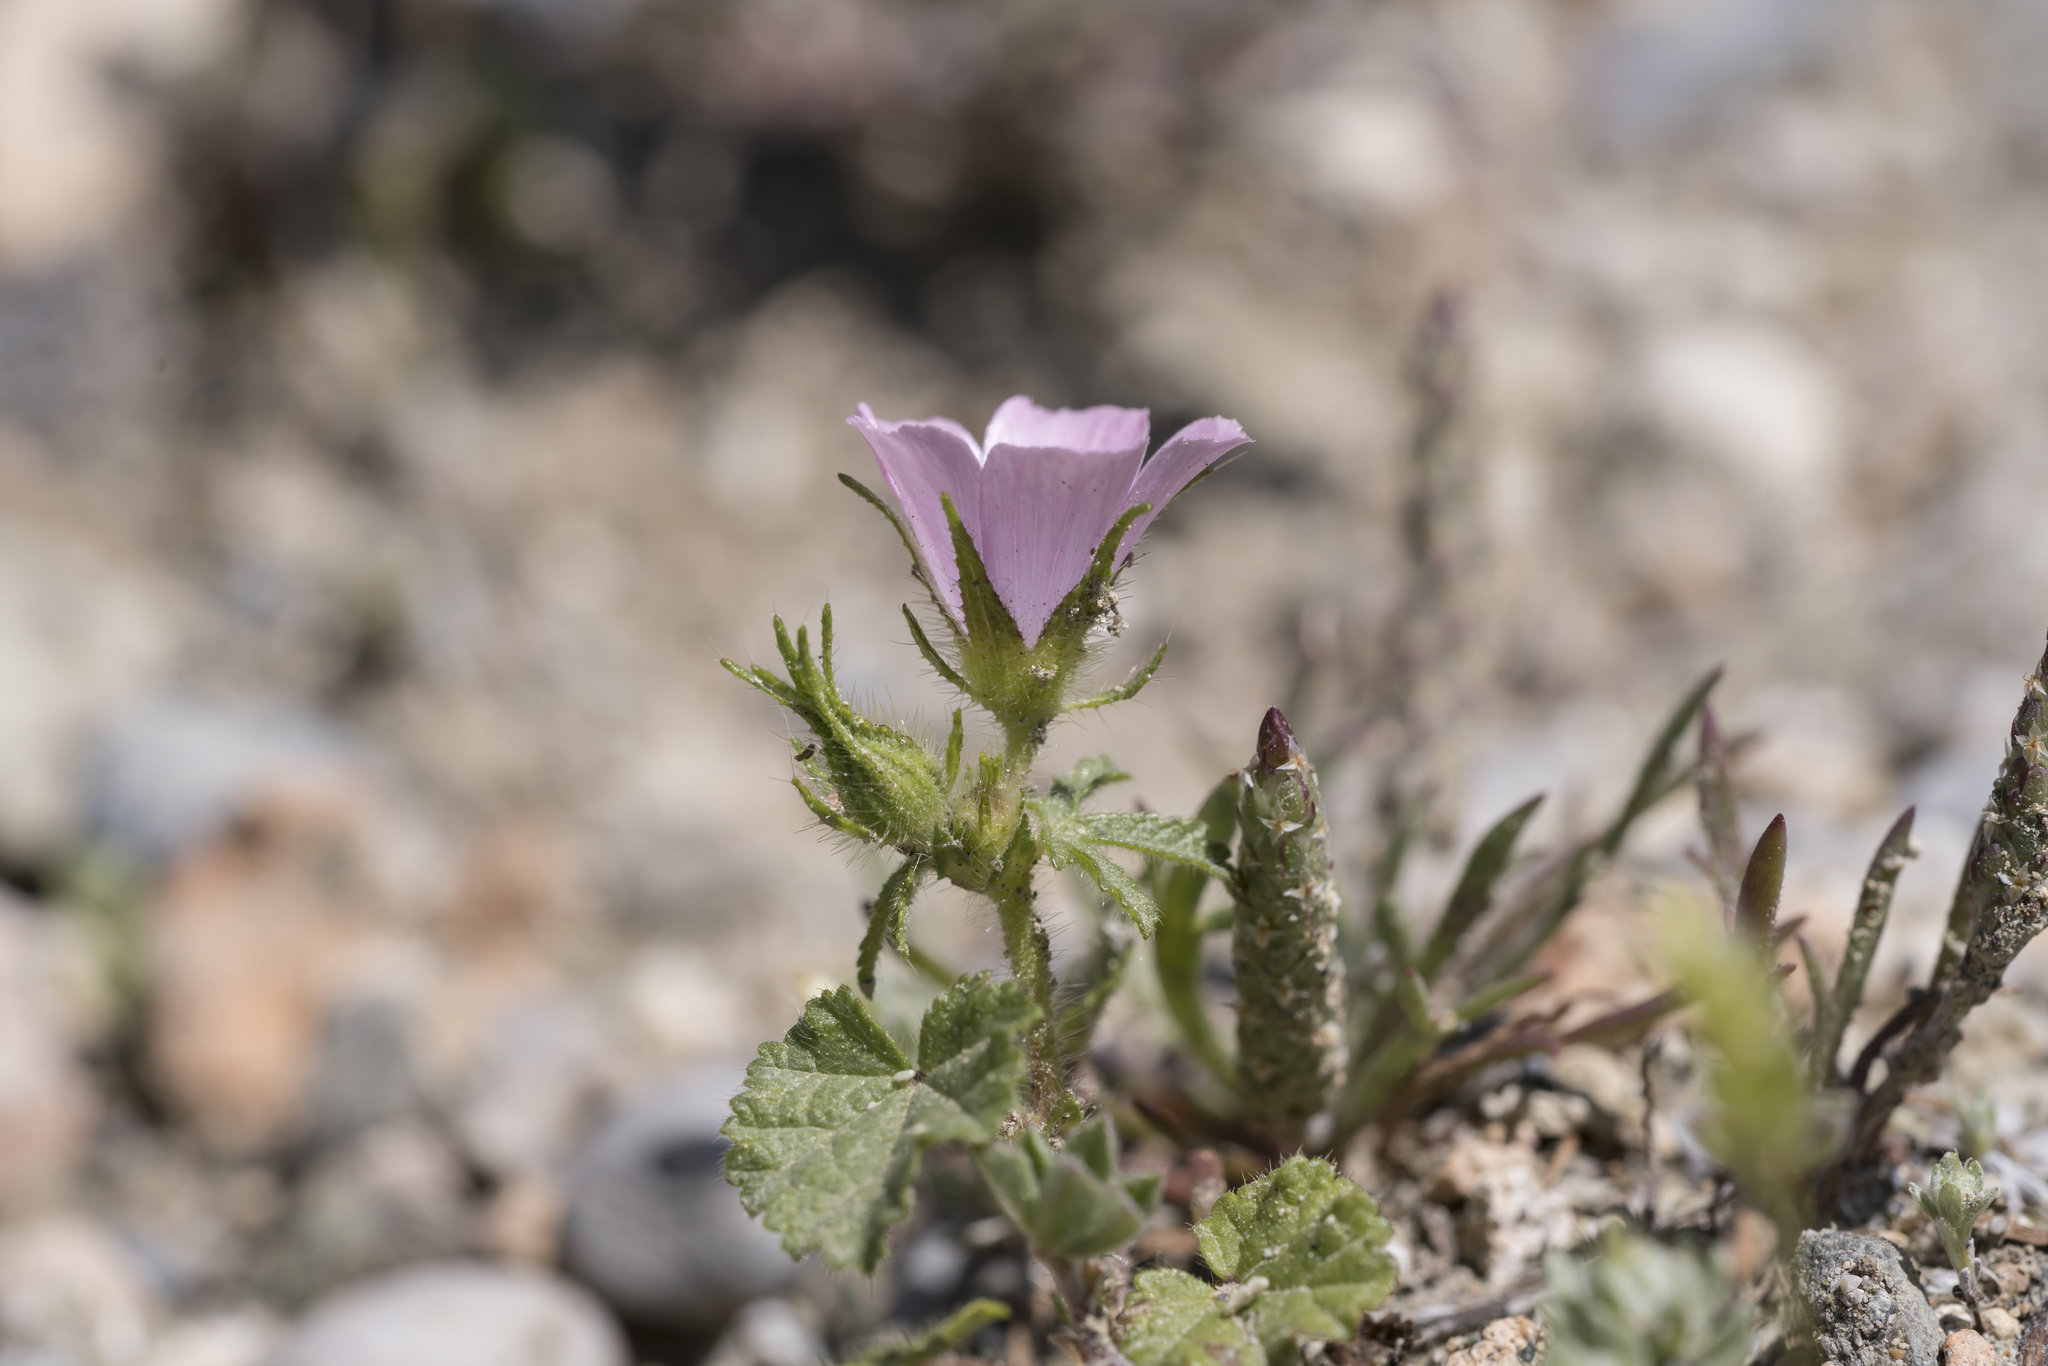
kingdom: Plantae
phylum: Tracheophyta
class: Magnoliopsida
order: Malvales
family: Malvaceae
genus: Malva
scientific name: Malva cretica
